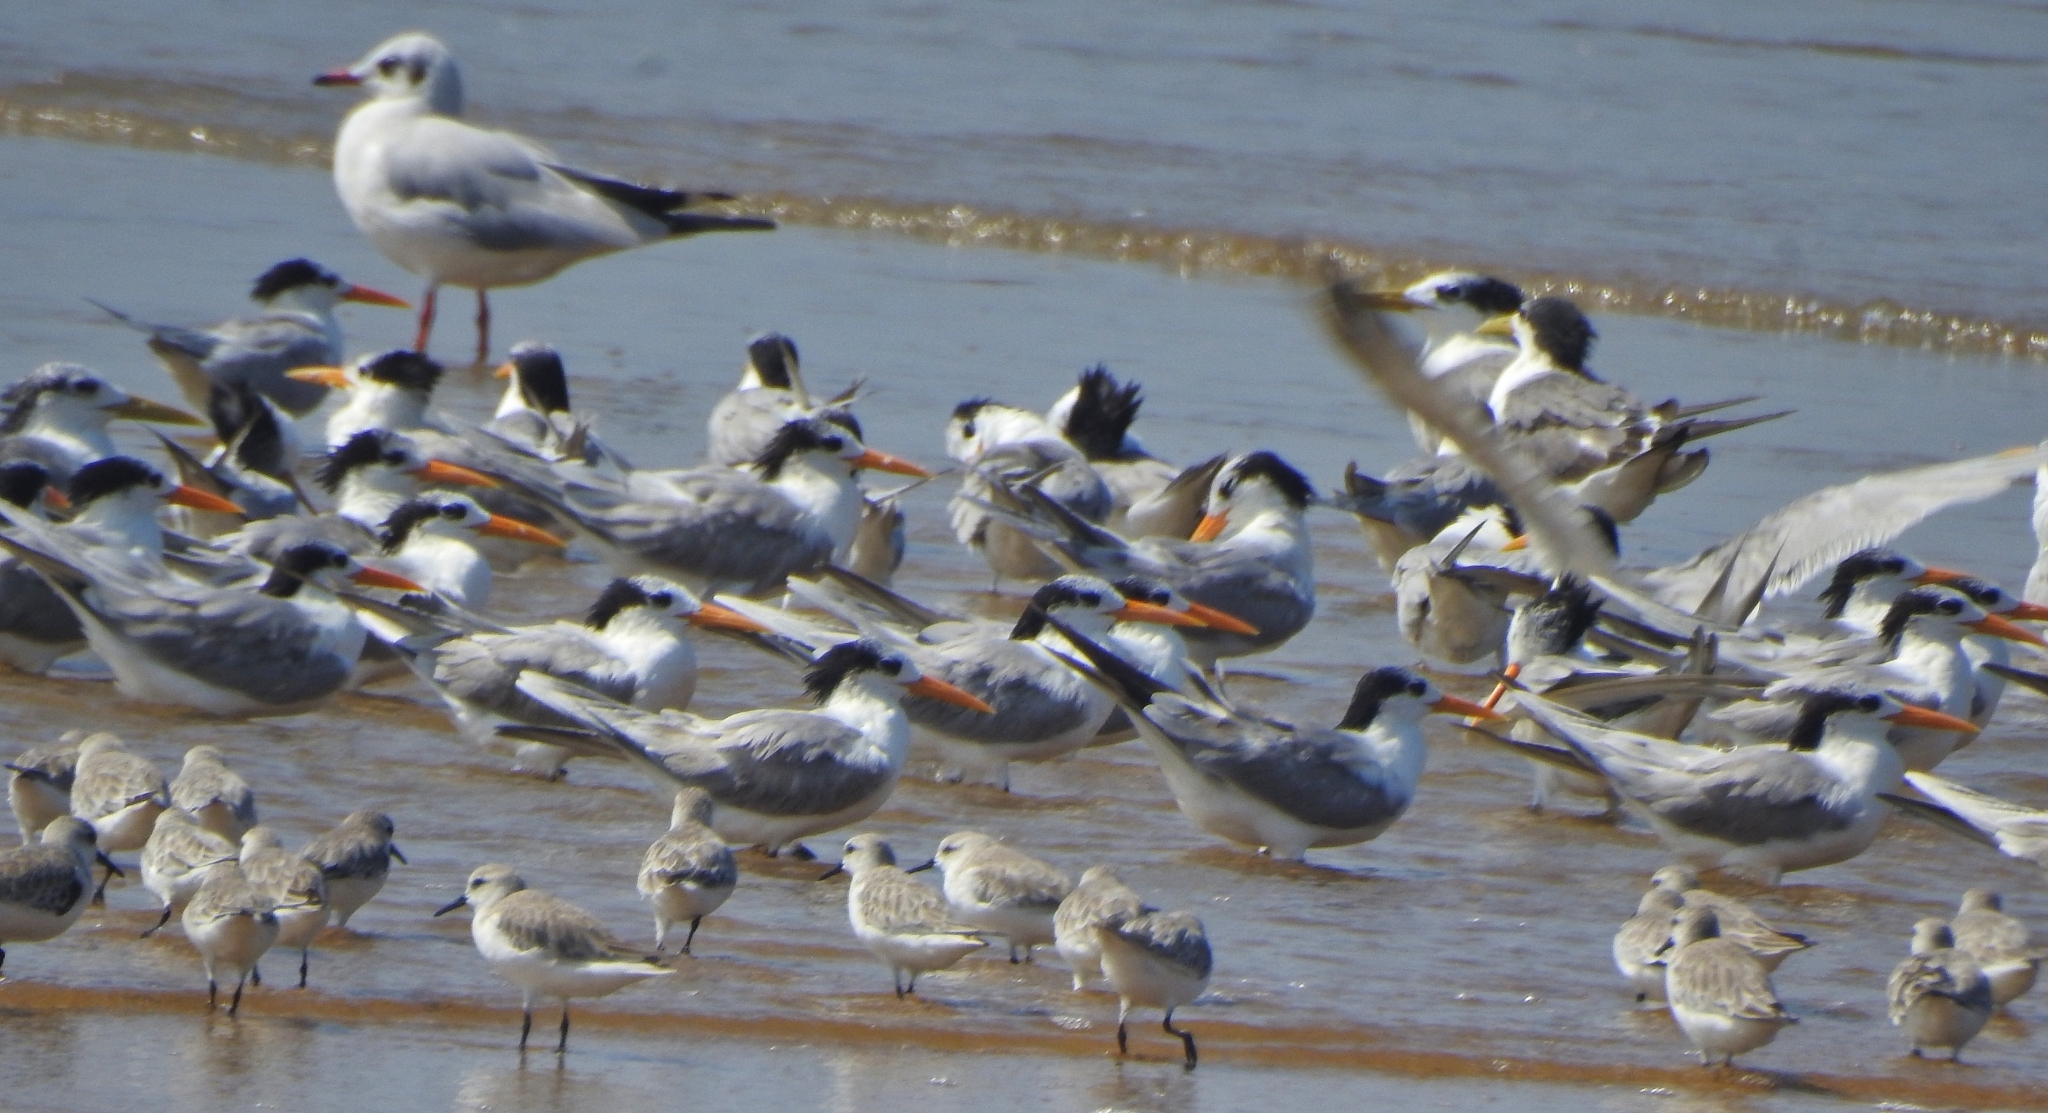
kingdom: Animalia
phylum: Chordata
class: Aves
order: Charadriiformes
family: Laridae
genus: Thalasseus
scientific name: Thalasseus bengalensis
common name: Lesser crested tern
